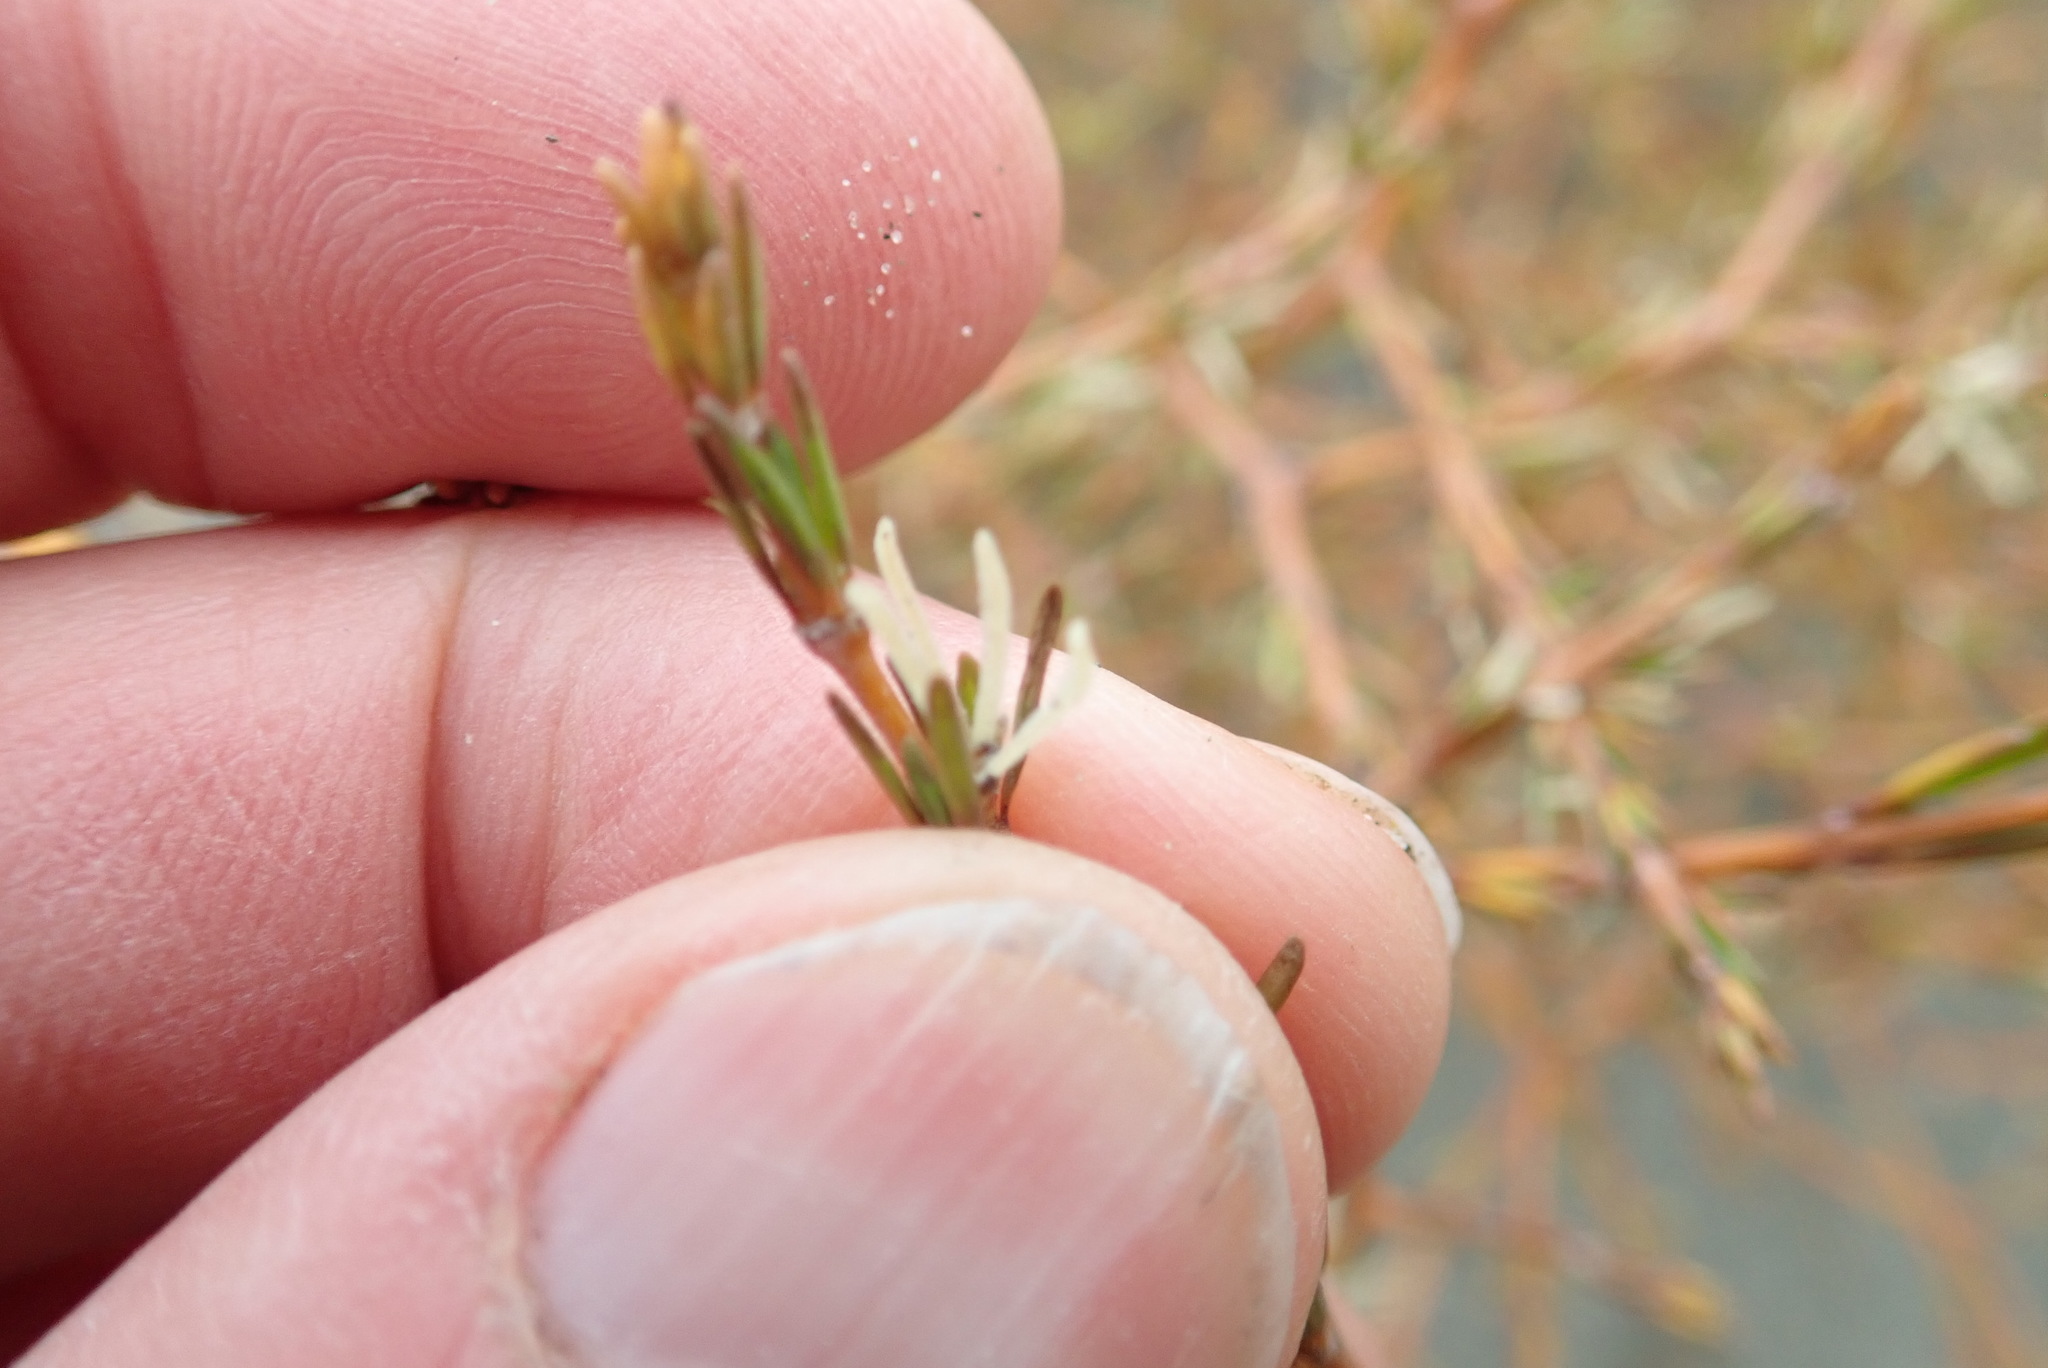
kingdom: Plantae
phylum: Tracheophyta
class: Magnoliopsida
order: Gentianales
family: Rubiaceae
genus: Coprosma
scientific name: Coprosma acerosa
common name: Sand coprosma
